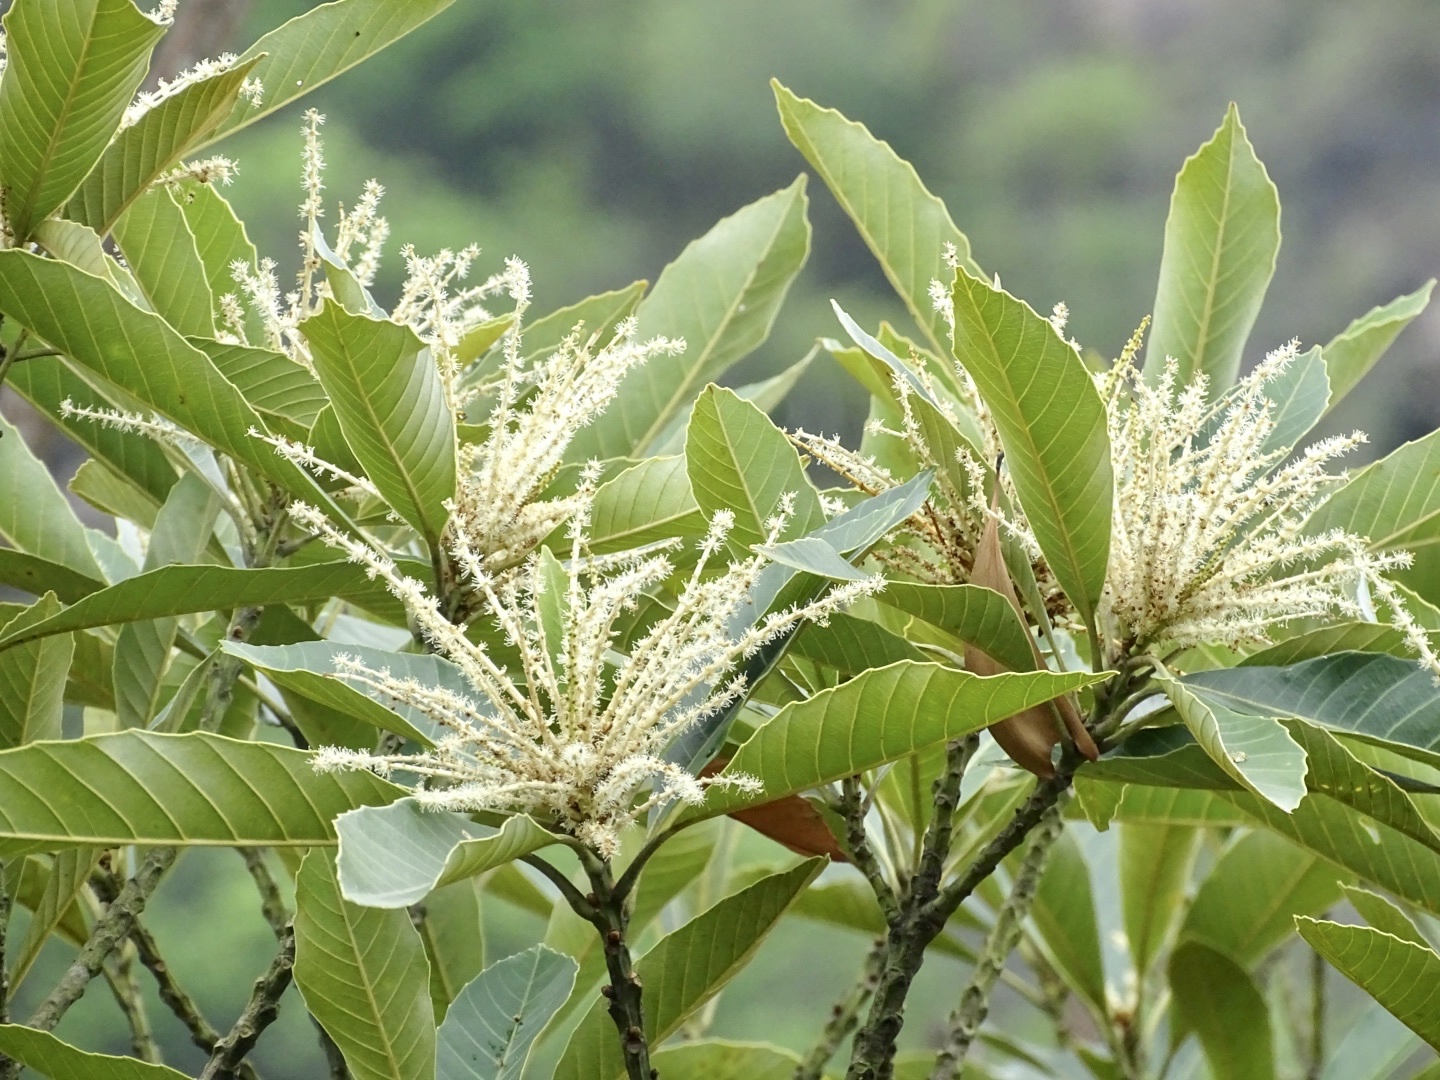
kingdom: Plantae
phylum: Tracheophyta
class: Magnoliopsida
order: Fagales
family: Fagaceae
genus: Castanopsis
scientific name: Castanopsis fissa
